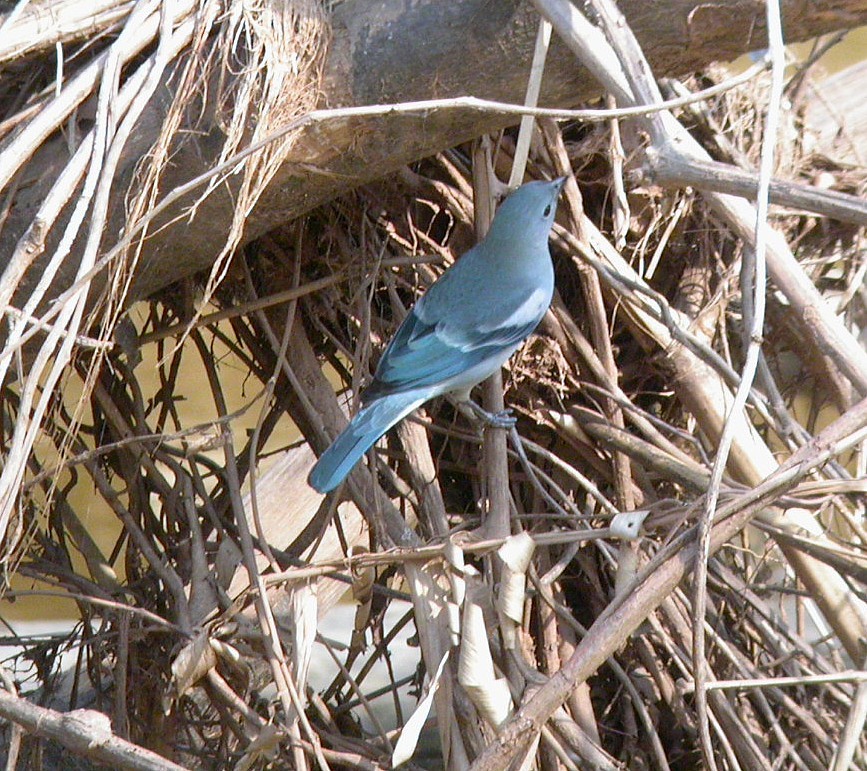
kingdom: Animalia
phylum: Chordata
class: Aves
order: Passeriformes
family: Thraupidae
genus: Thraupis
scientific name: Thraupis episcopus
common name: Blue-grey tanager
